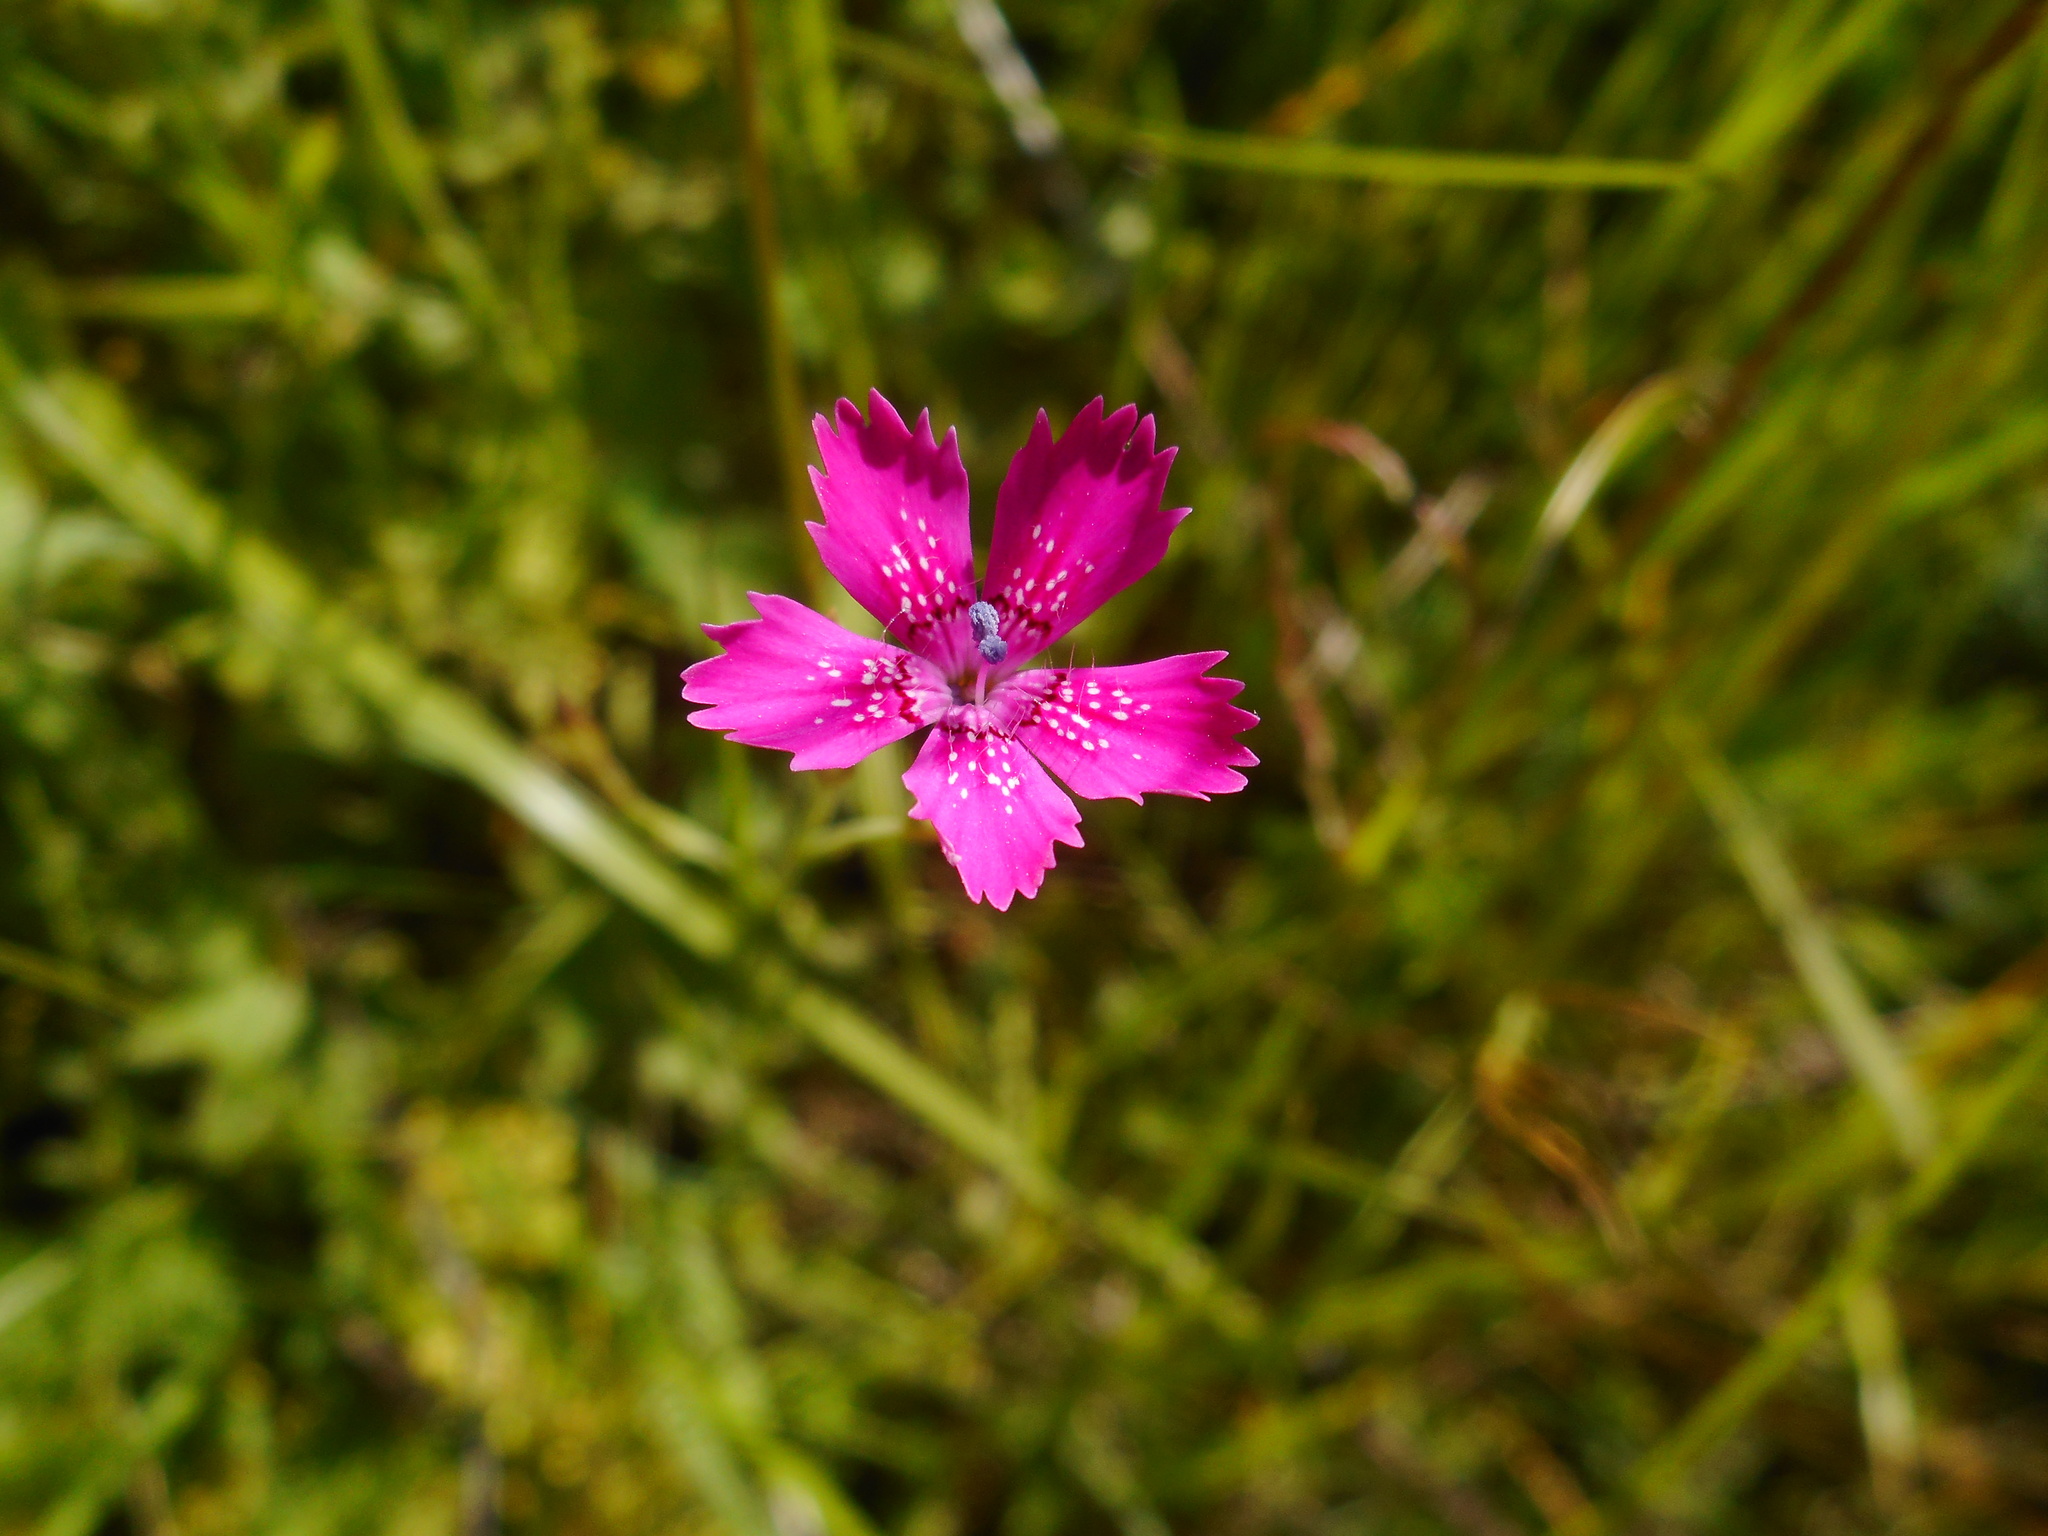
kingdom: Plantae
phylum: Tracheophyta
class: Magnoliopsida
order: Caryophyllales
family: Caryophyllaceae
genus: Dianthus
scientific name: Dianthus deltoides
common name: Maiden pink
